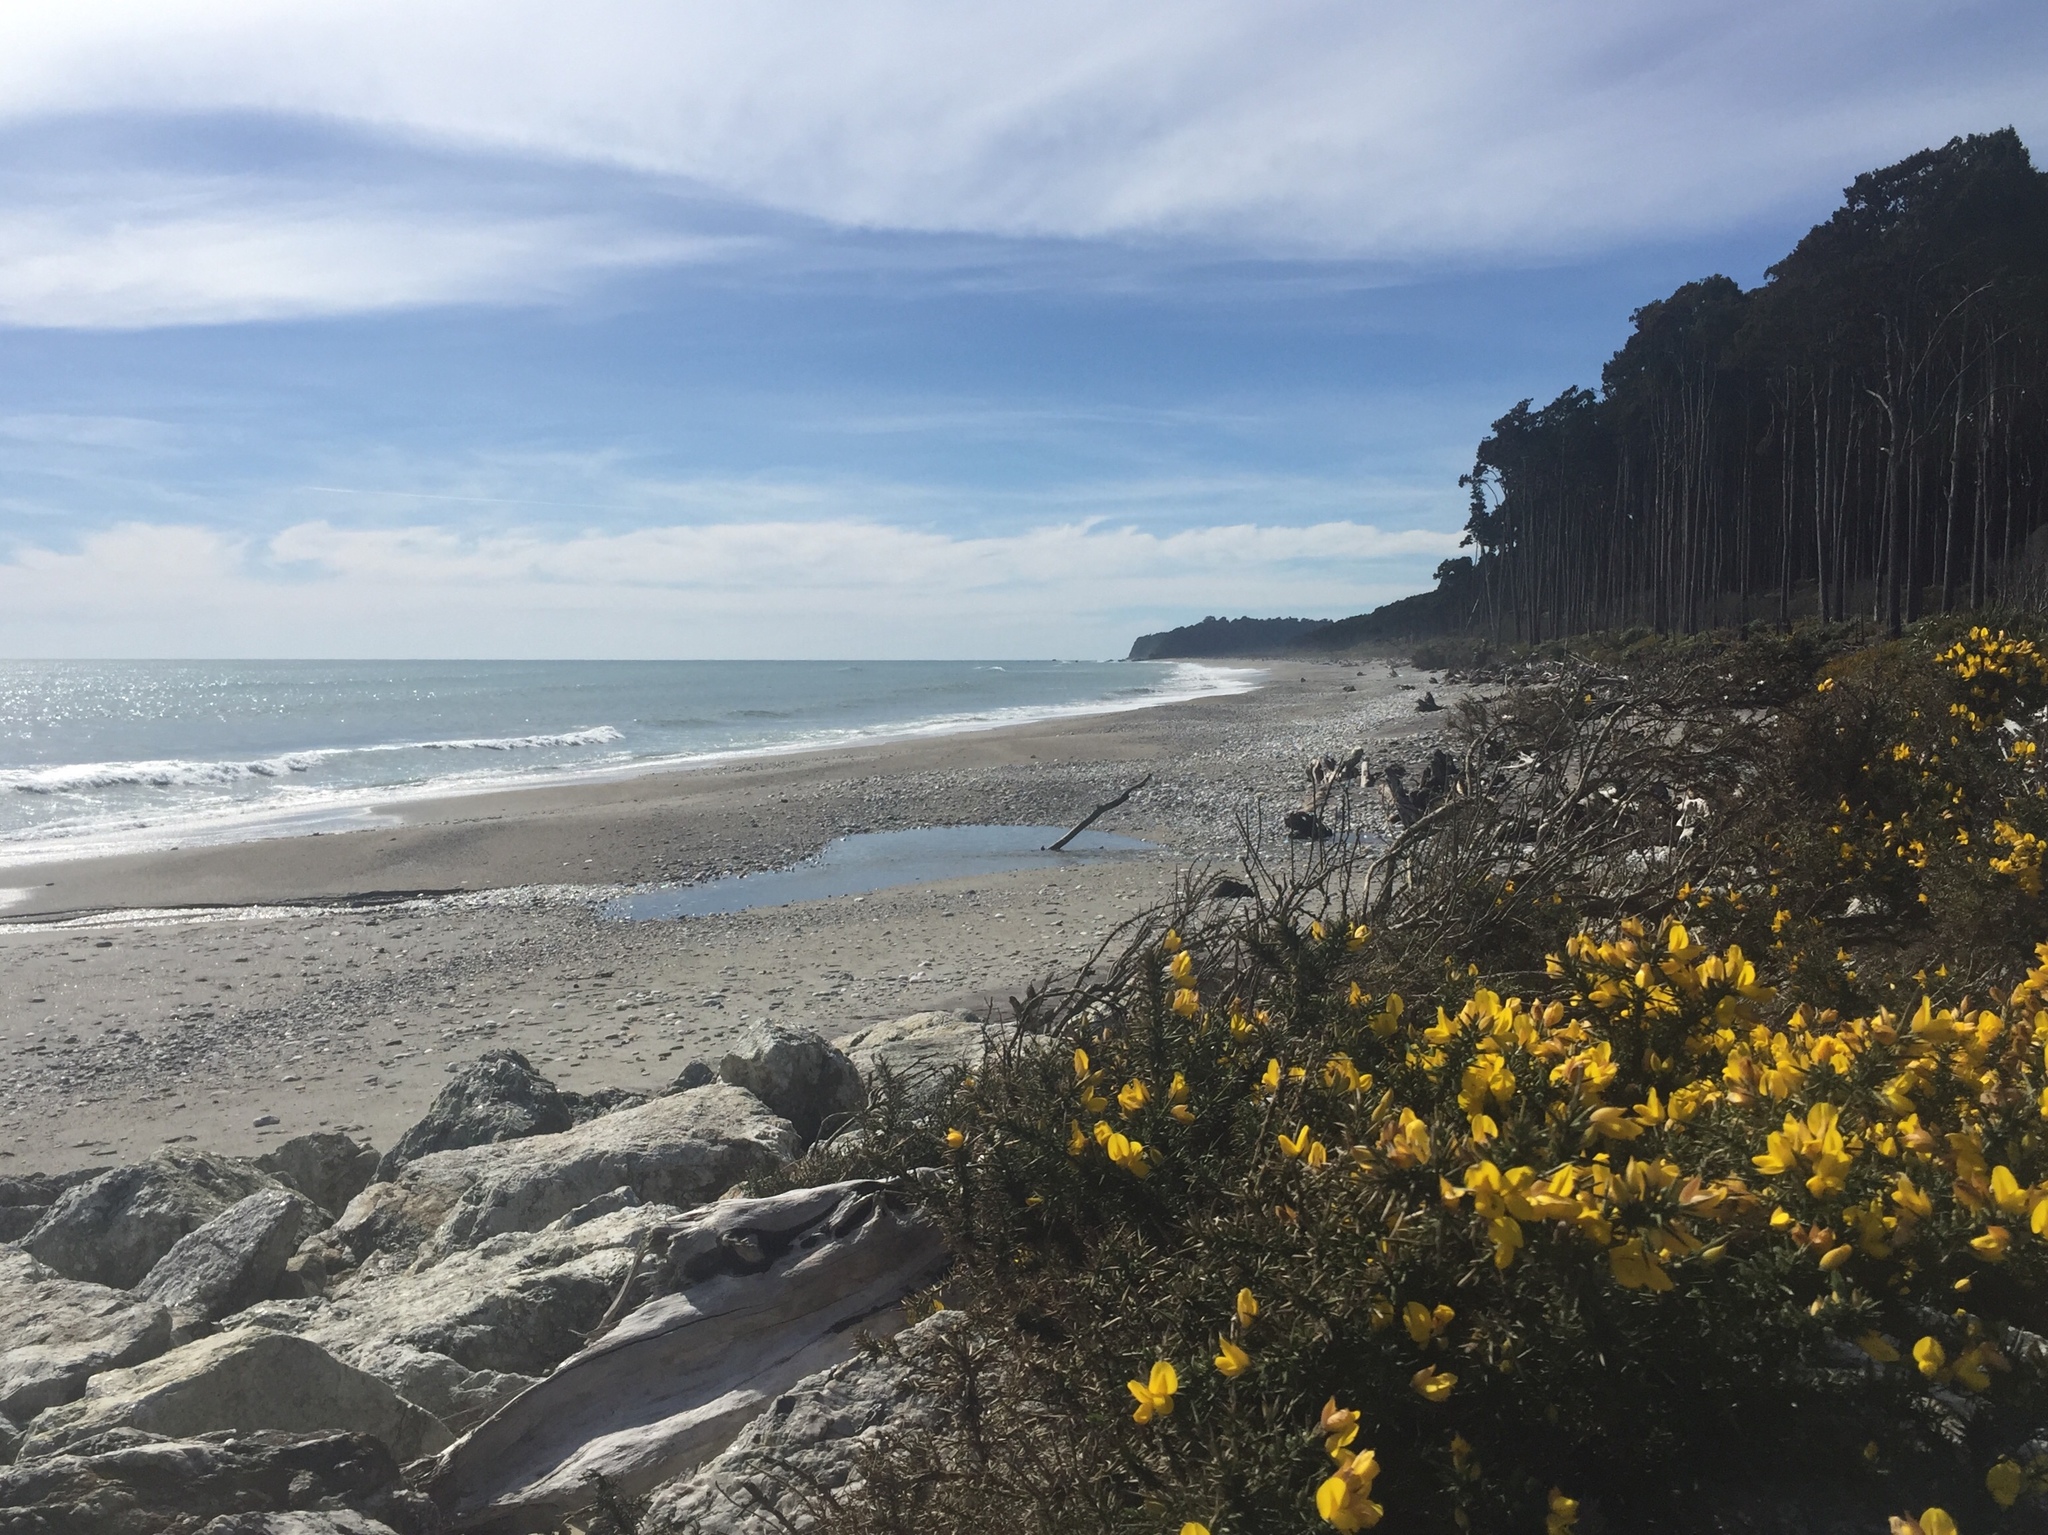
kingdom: Plantae
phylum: Tracheophyta
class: Magnoliopsida
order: Fabales
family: Fabaceae
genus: Ulex
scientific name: Ulex europaeus
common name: Common gorse
